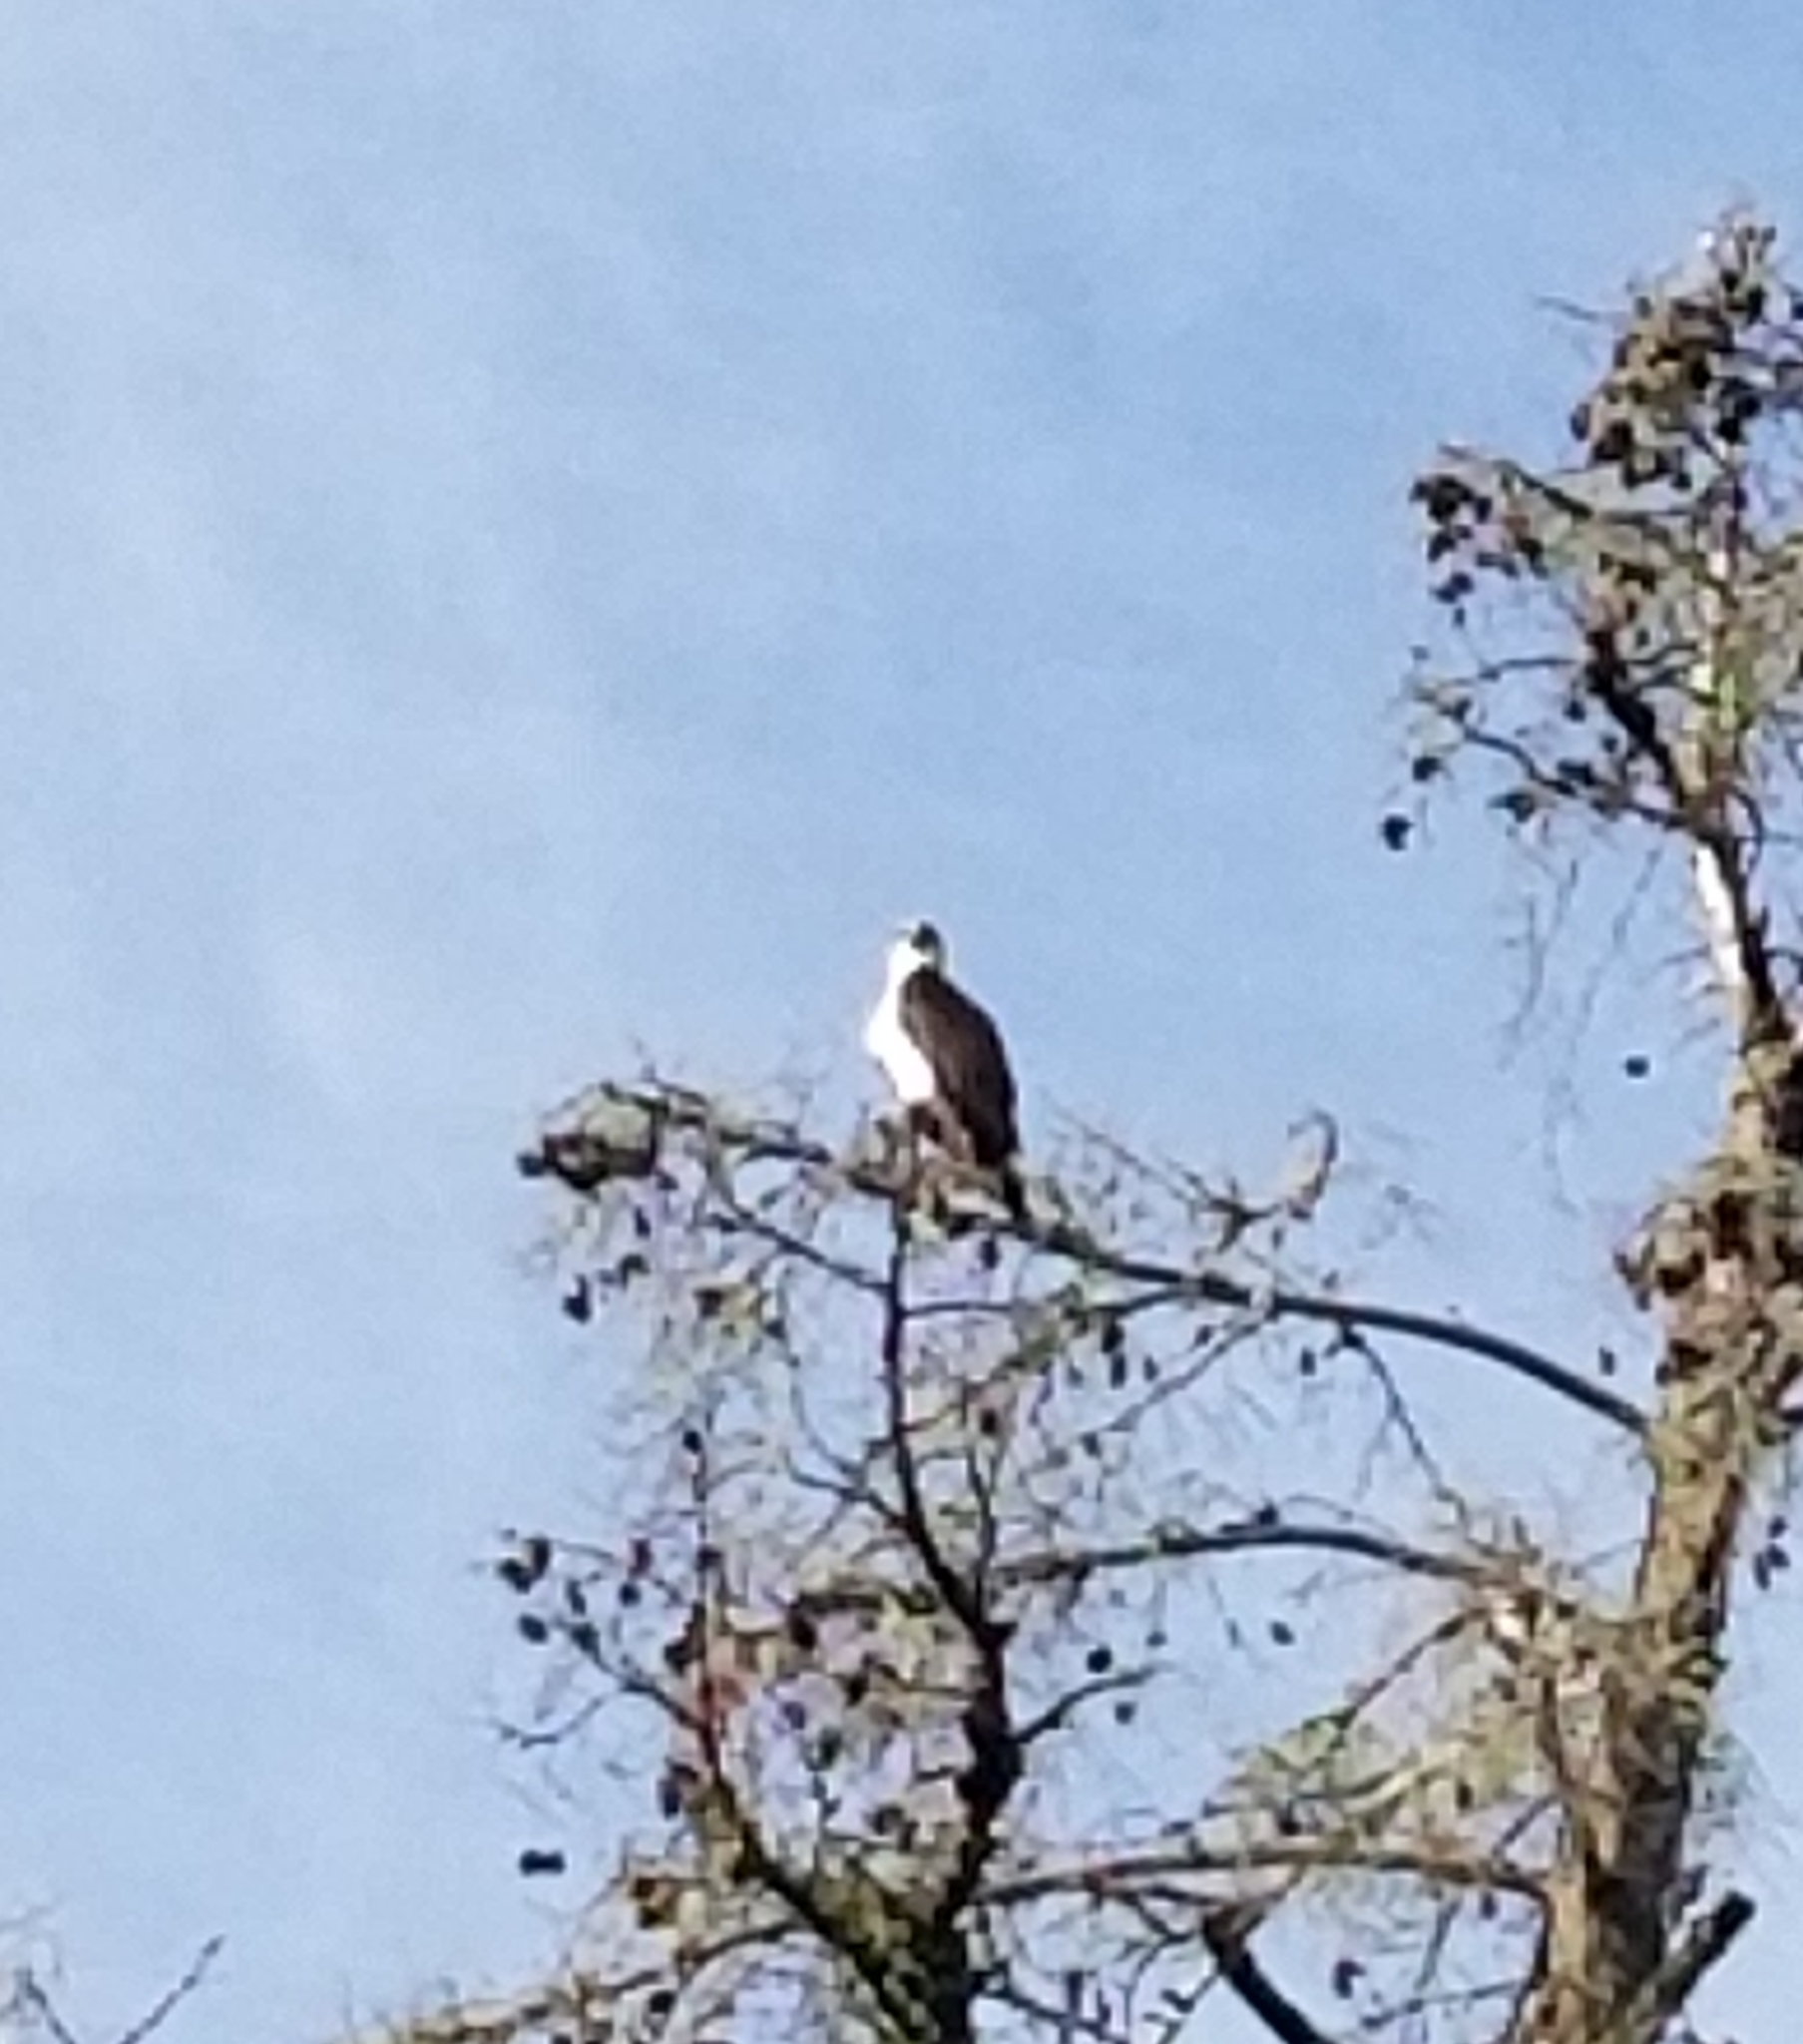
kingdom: Animalia
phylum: Chordata
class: Aves
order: Accipitriformes
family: Pandionidae
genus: Pandion
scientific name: Pandion haliaetus
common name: Osprey
